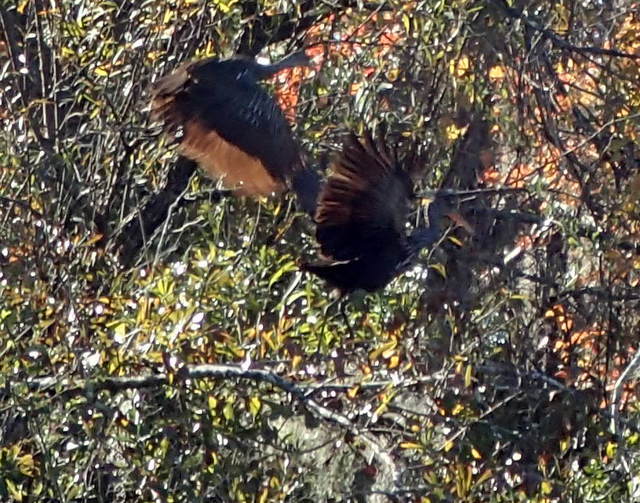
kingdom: Animalia
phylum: Chordata
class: Aves
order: Gruiformes
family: Aramidae
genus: Aramus
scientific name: Aramus guarauna
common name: Limpkin
